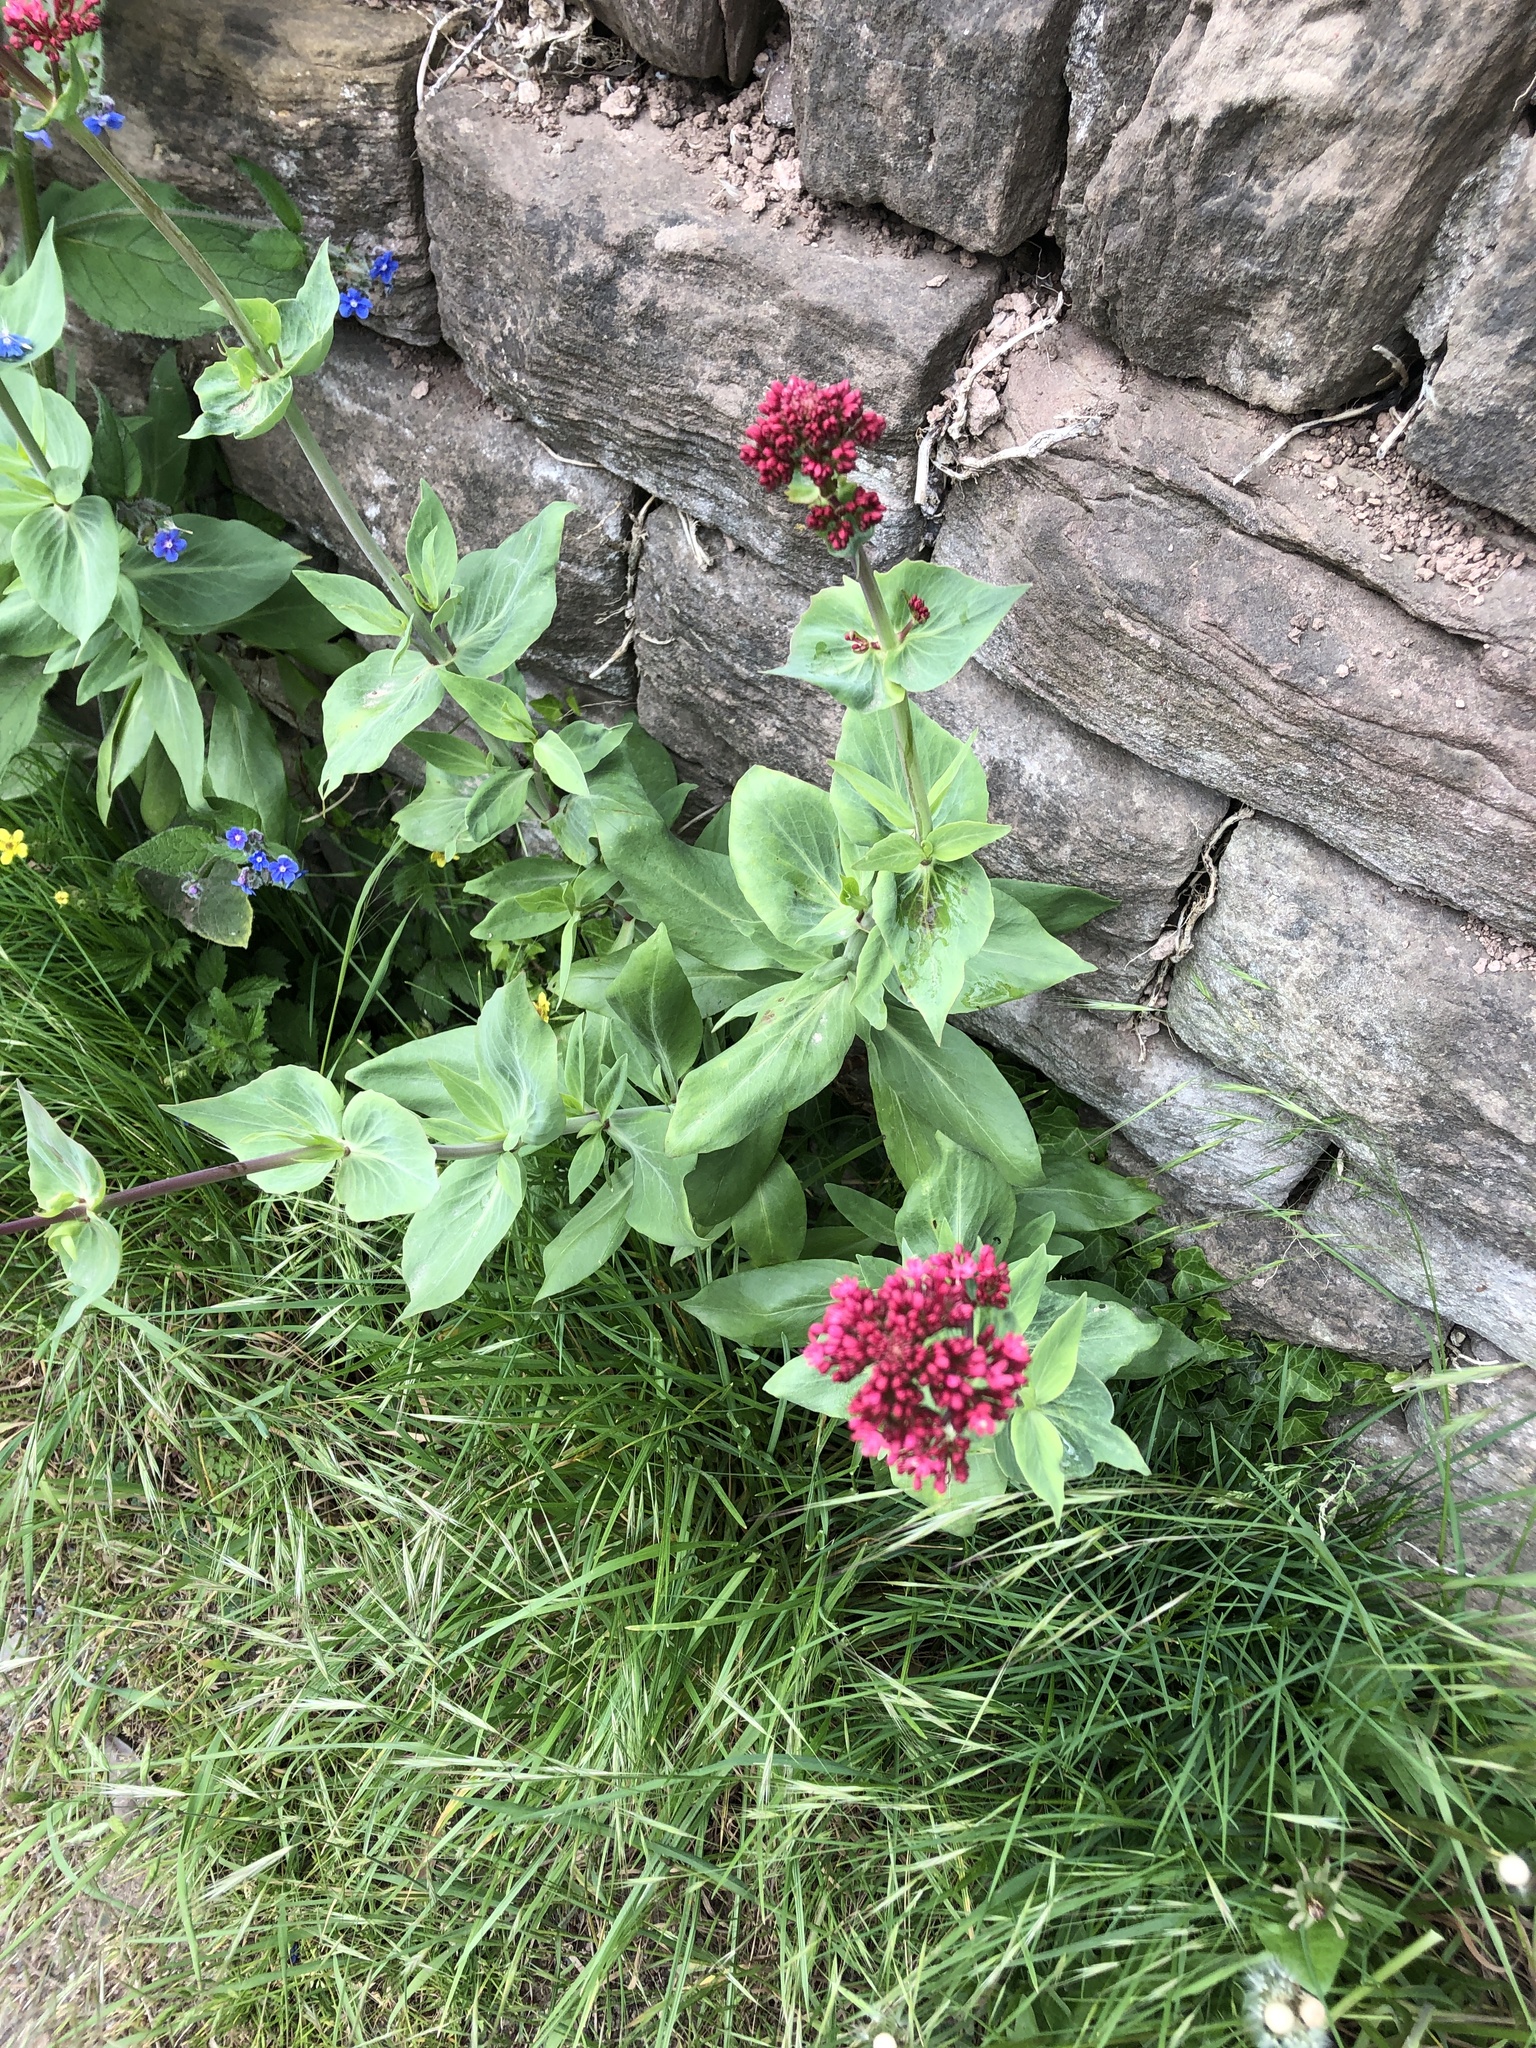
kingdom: Plantae
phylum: Tracheophyta
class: Magnoliopsida
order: Dipsacales
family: Caprifoliaceae
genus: Centranthus
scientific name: Centranthus ruber
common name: Red valerian
